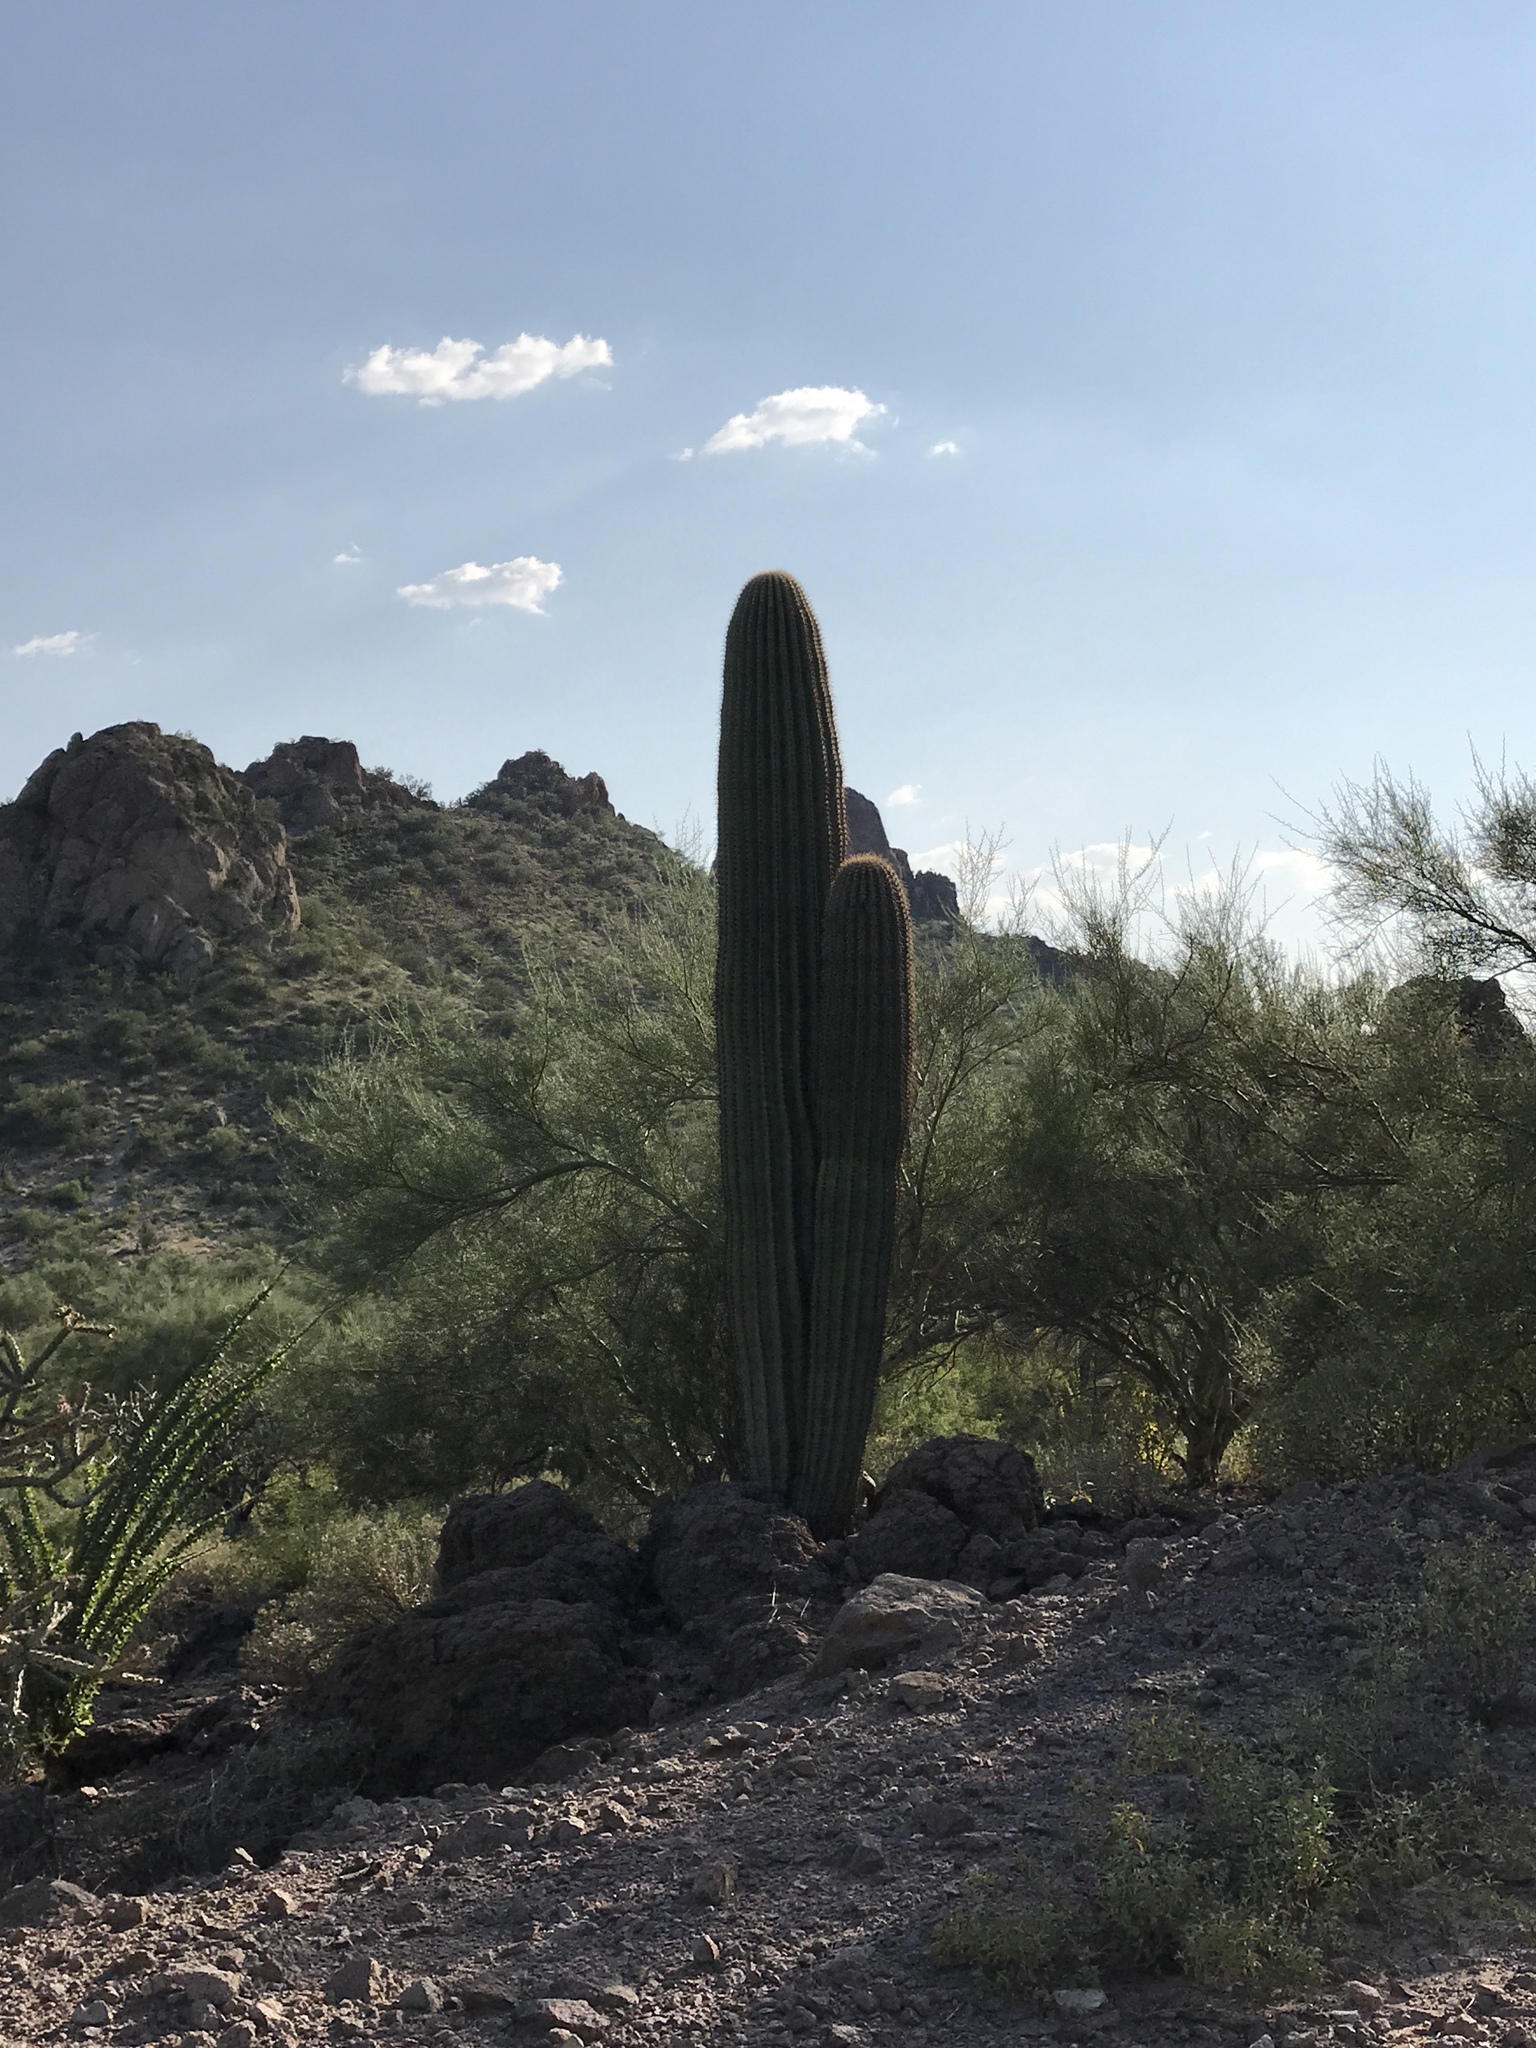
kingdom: Plantae
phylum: Tracheophyta
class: Magnoliopsida
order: Caryophyllales
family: Cactaceae
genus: Carnegiea
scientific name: Carnegiea gigantea
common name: Saguaro
